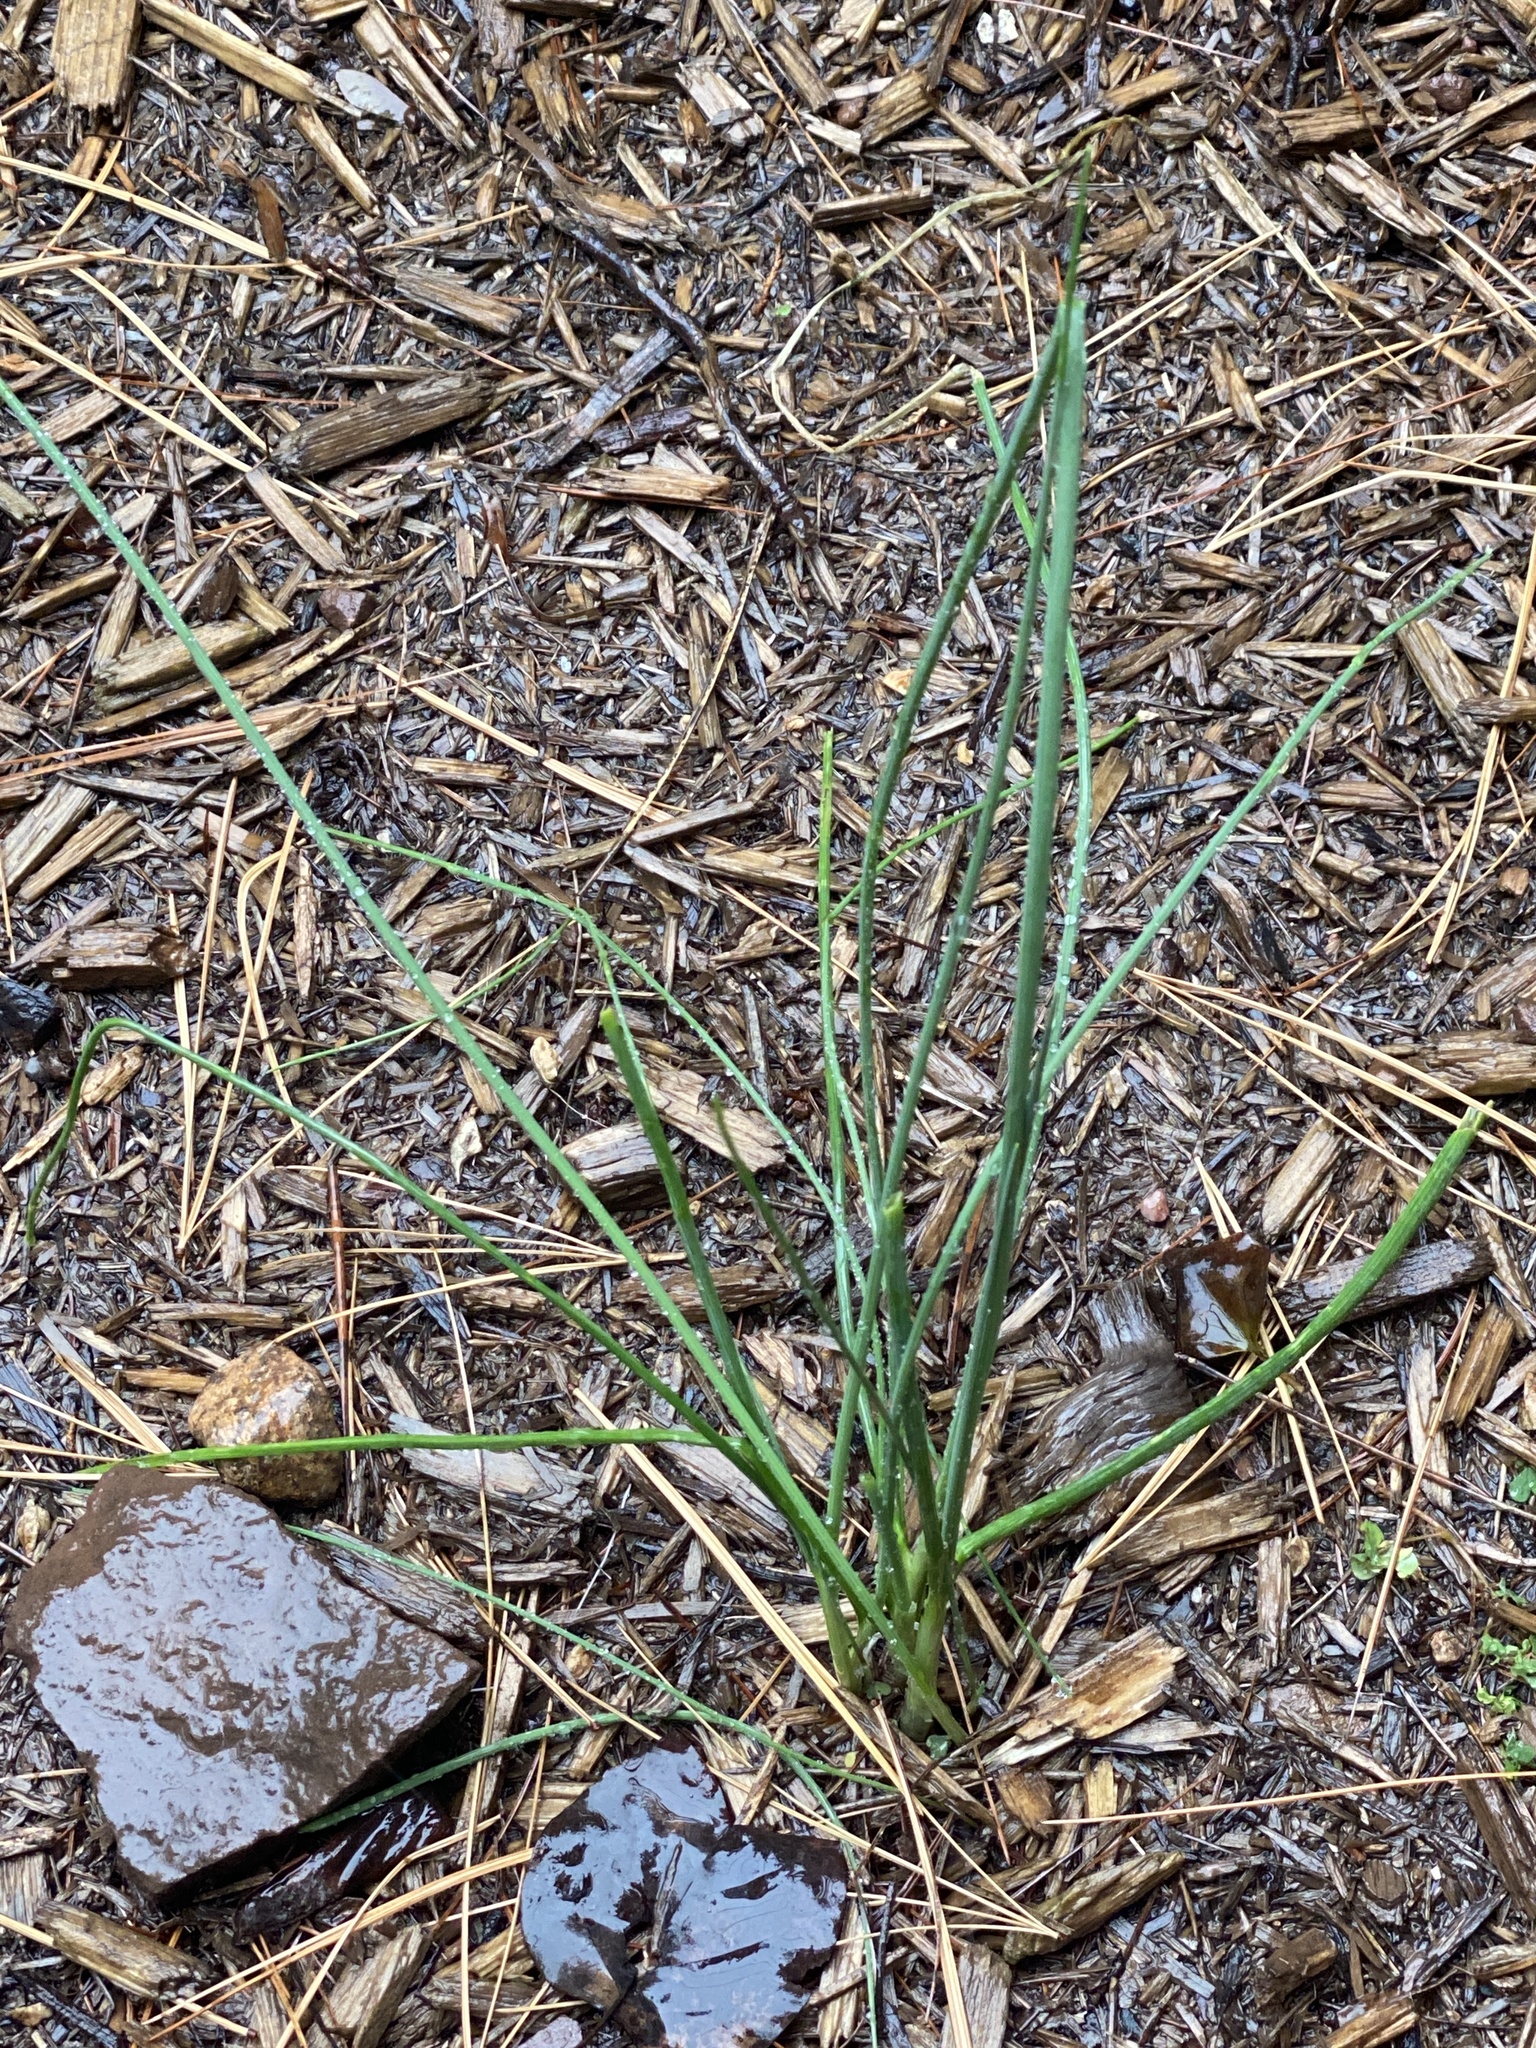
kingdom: Plantae
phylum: Tracheophyta
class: Liliopsida
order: Asparagales
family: Amaryllidaceae
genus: Allium
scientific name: Allium vineale
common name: Crow garlic
